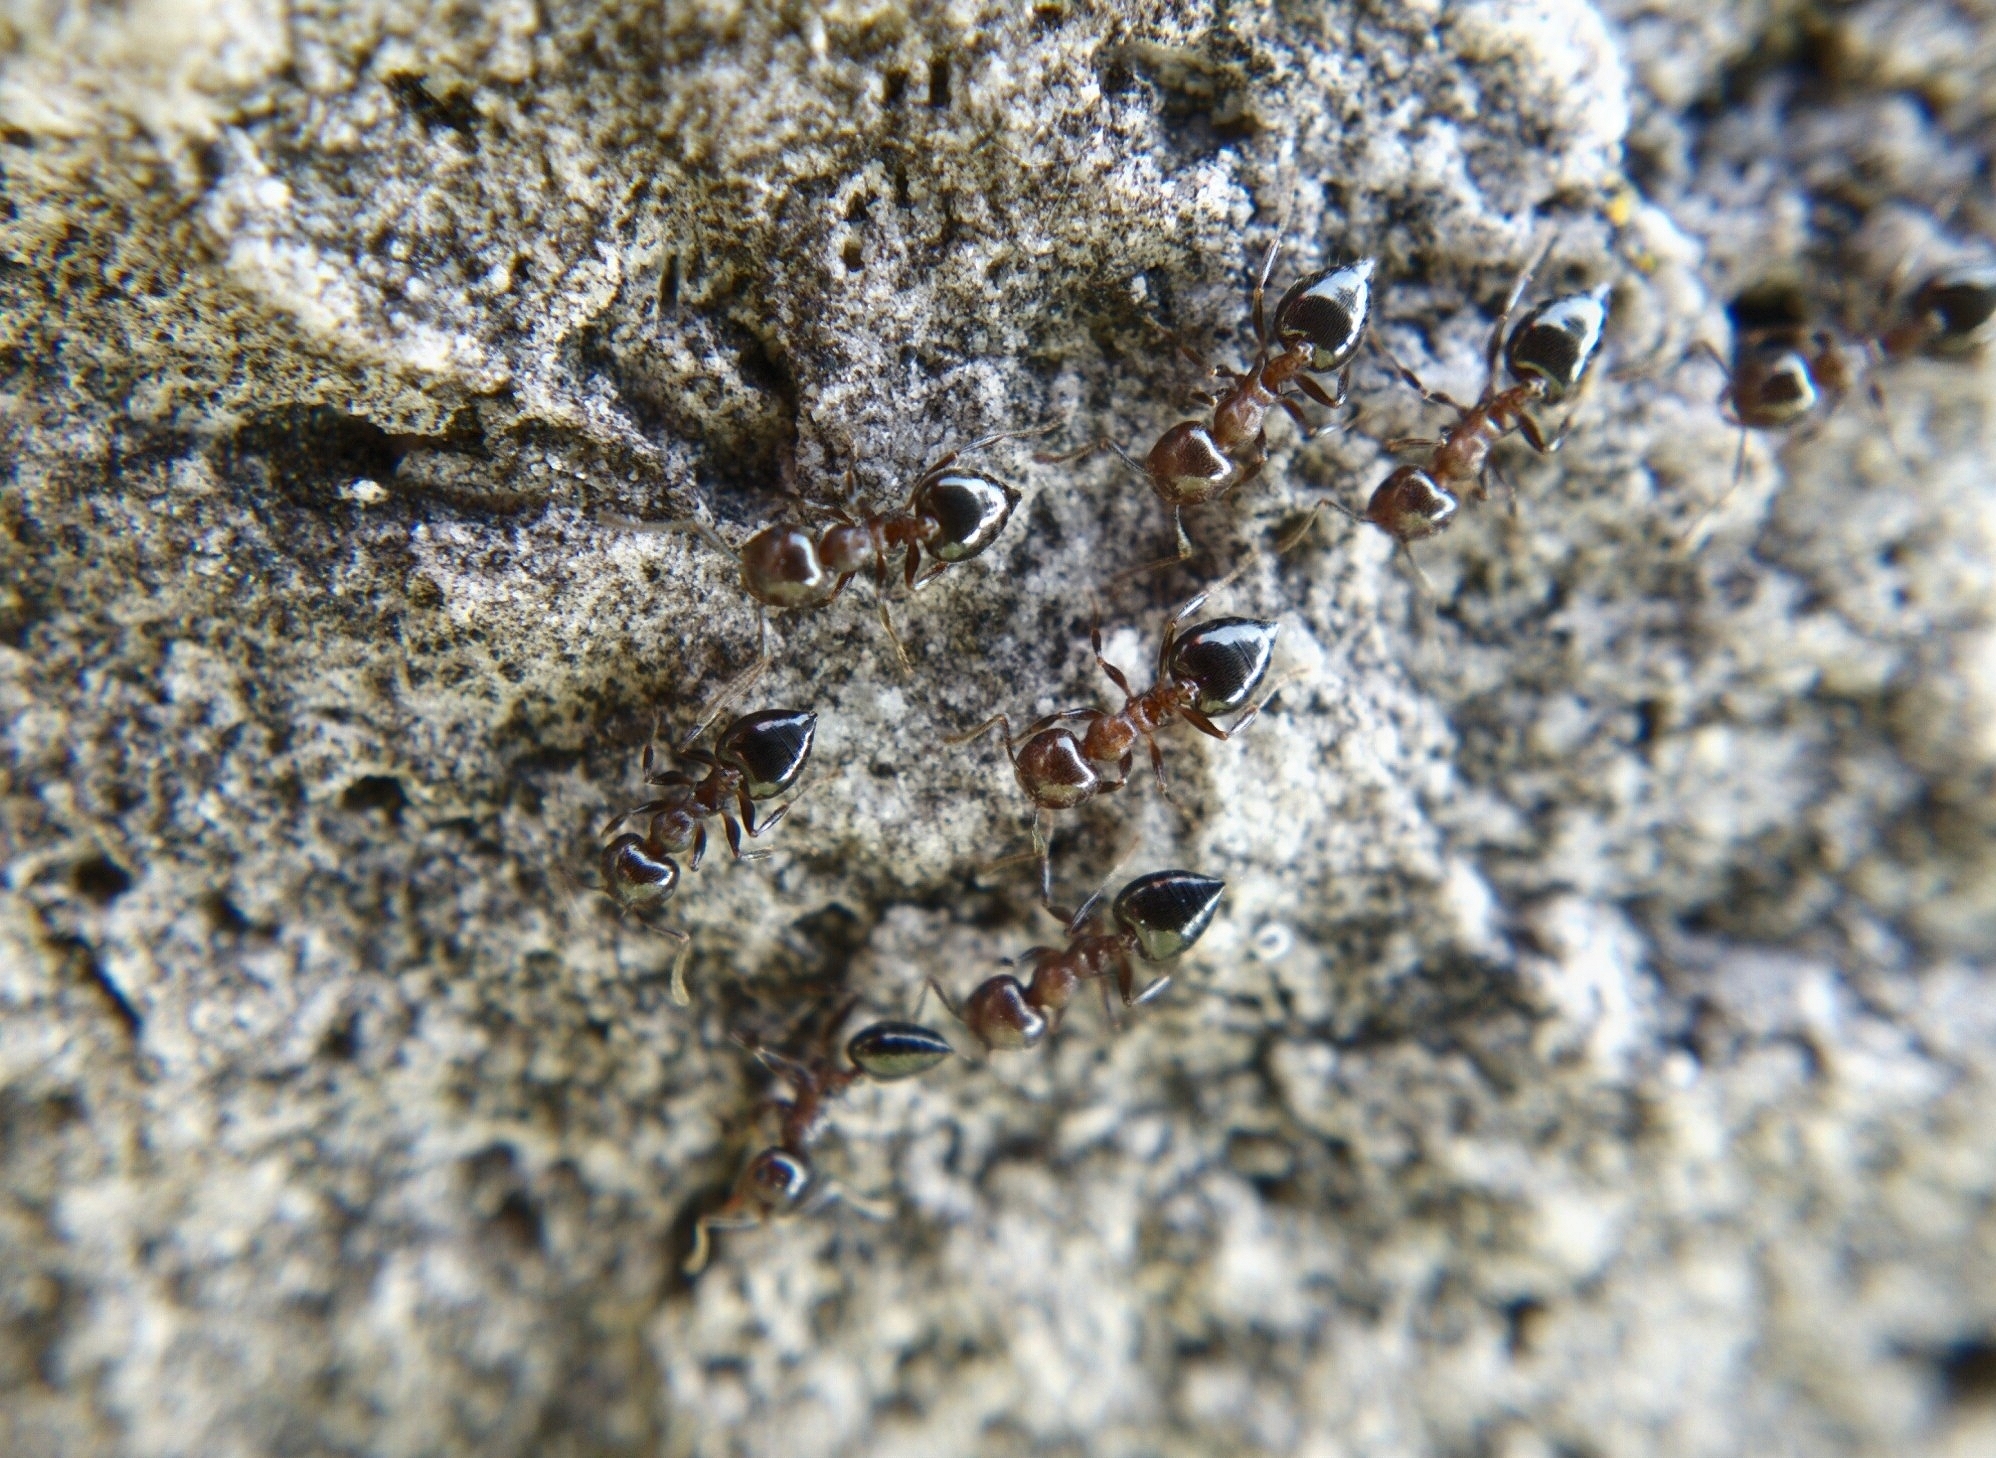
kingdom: Animalia
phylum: Arthropoda
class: Insecta
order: Hymenoptera
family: Formicidae
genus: Crematogaster
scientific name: Crematogaster
